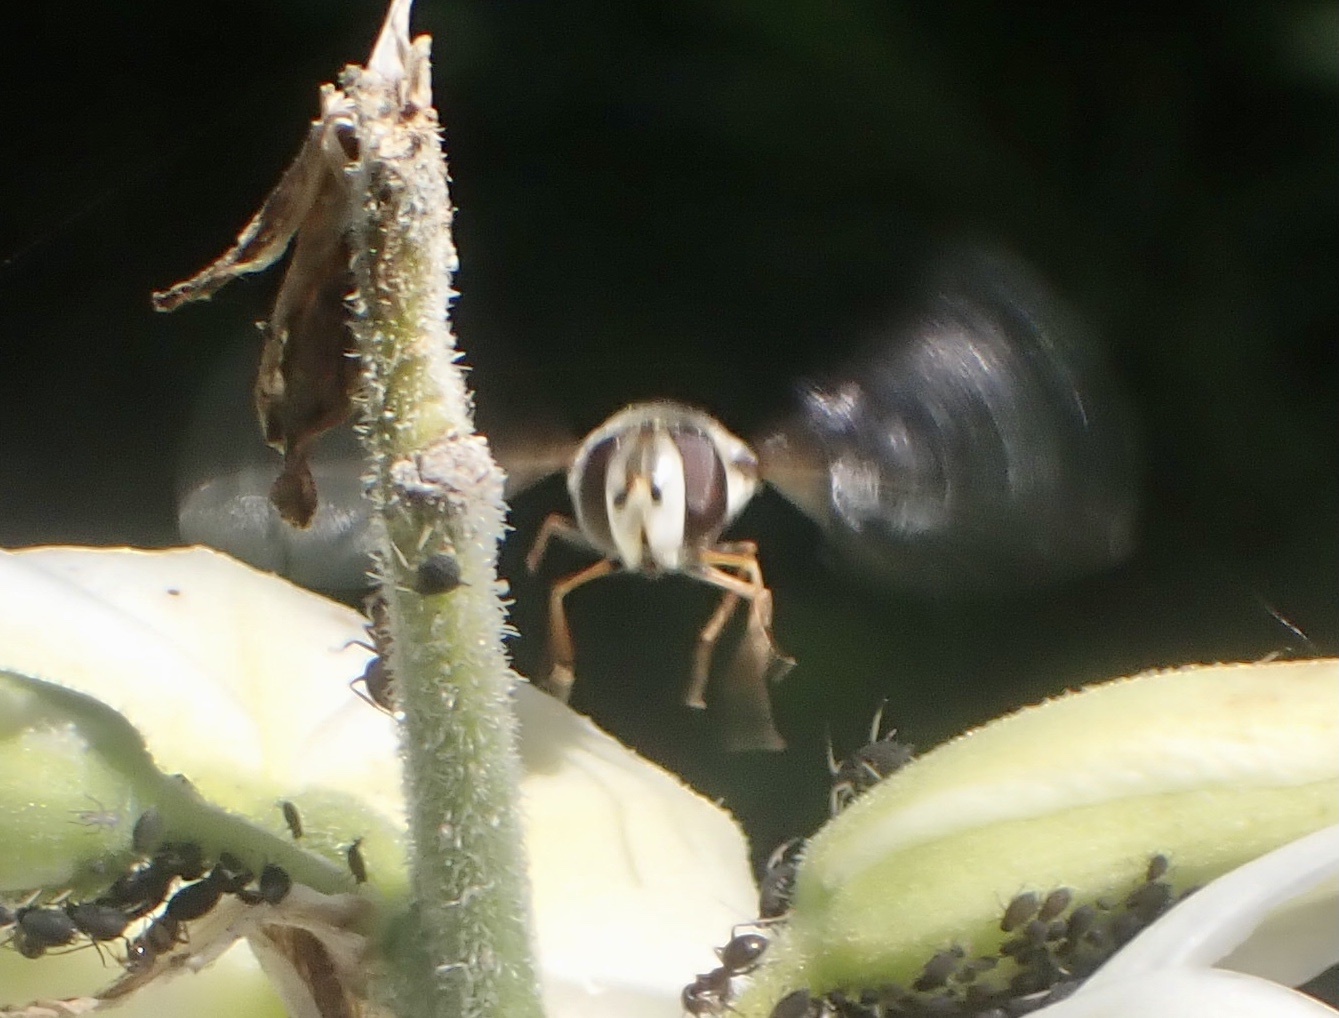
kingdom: Animalia
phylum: Arthropoda
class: Insecta
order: Diptera
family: Syrphidae
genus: Scaeva
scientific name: Scaeva pyrastri
